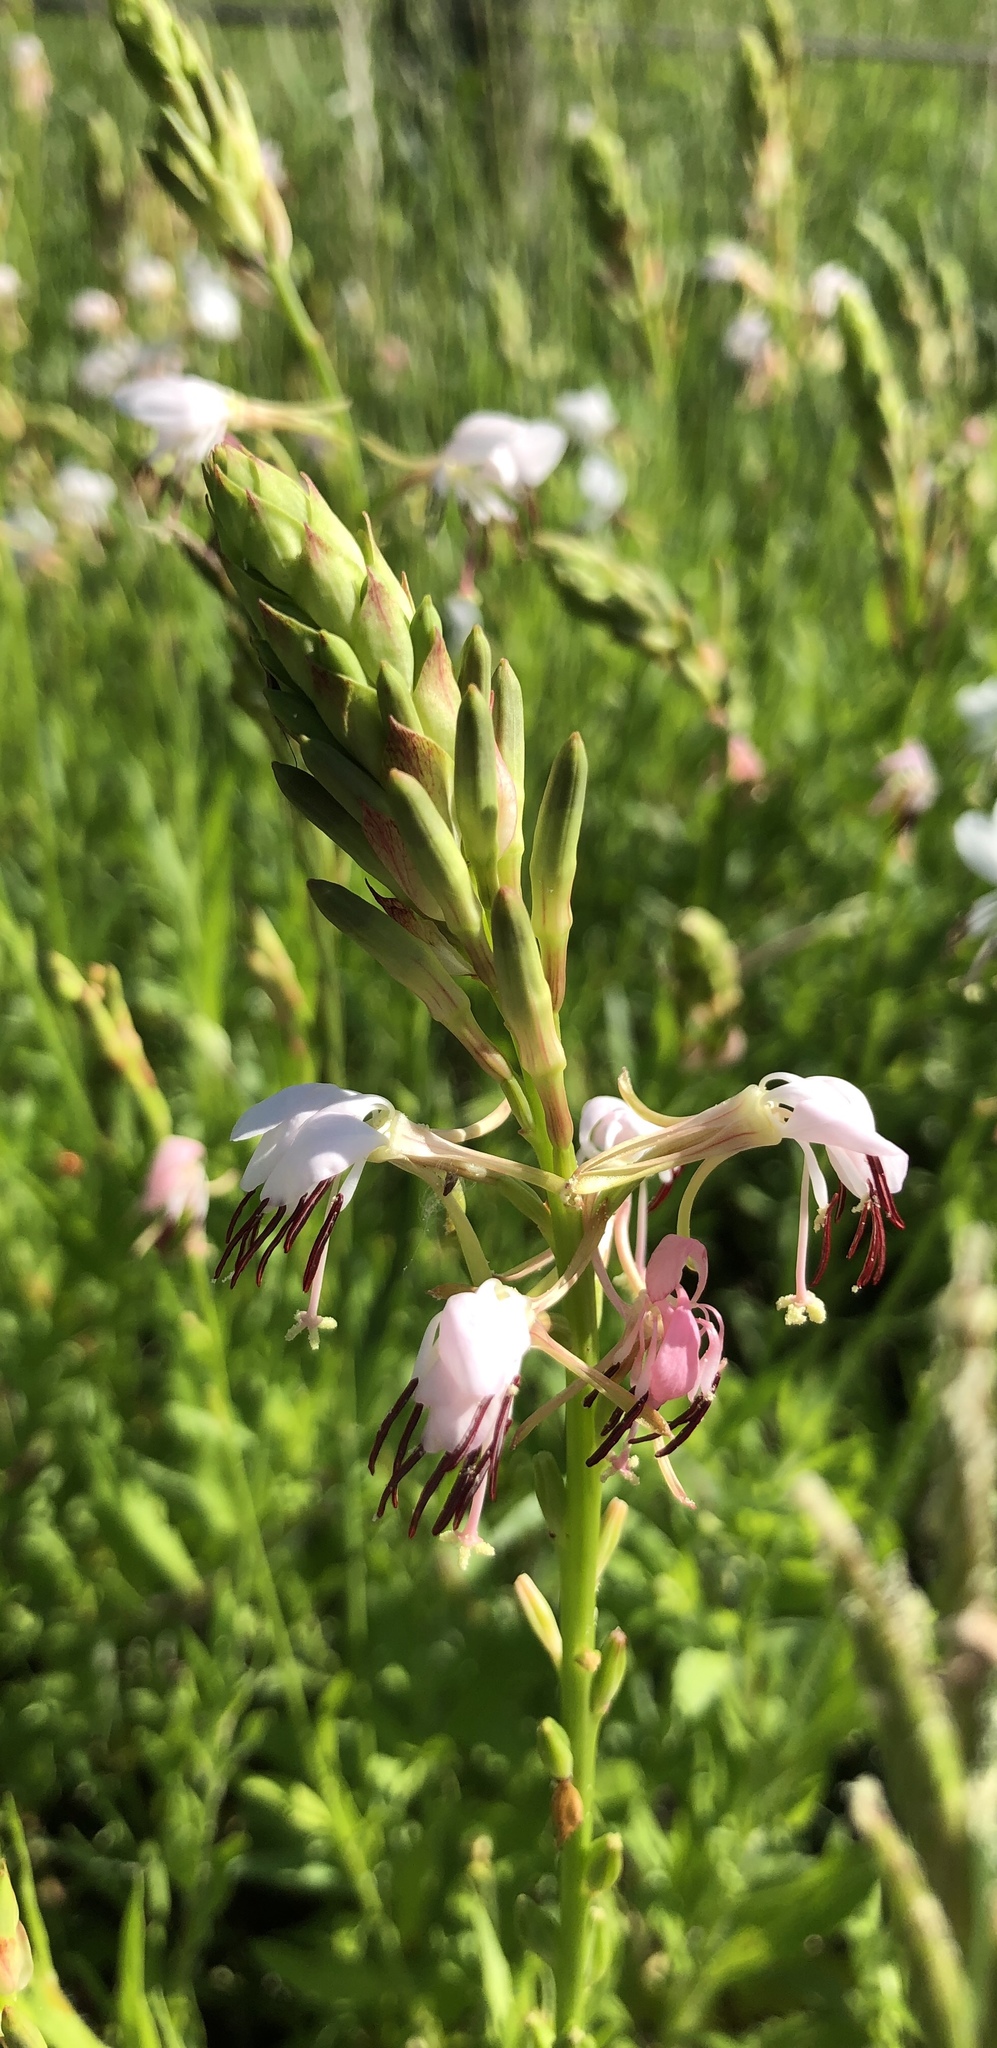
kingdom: Plantae
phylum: Tracheophyta
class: Magnoliopsida
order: Myrtales
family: Onagraceae
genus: Oenothera
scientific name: Oenothera suffulta
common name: Kisses
